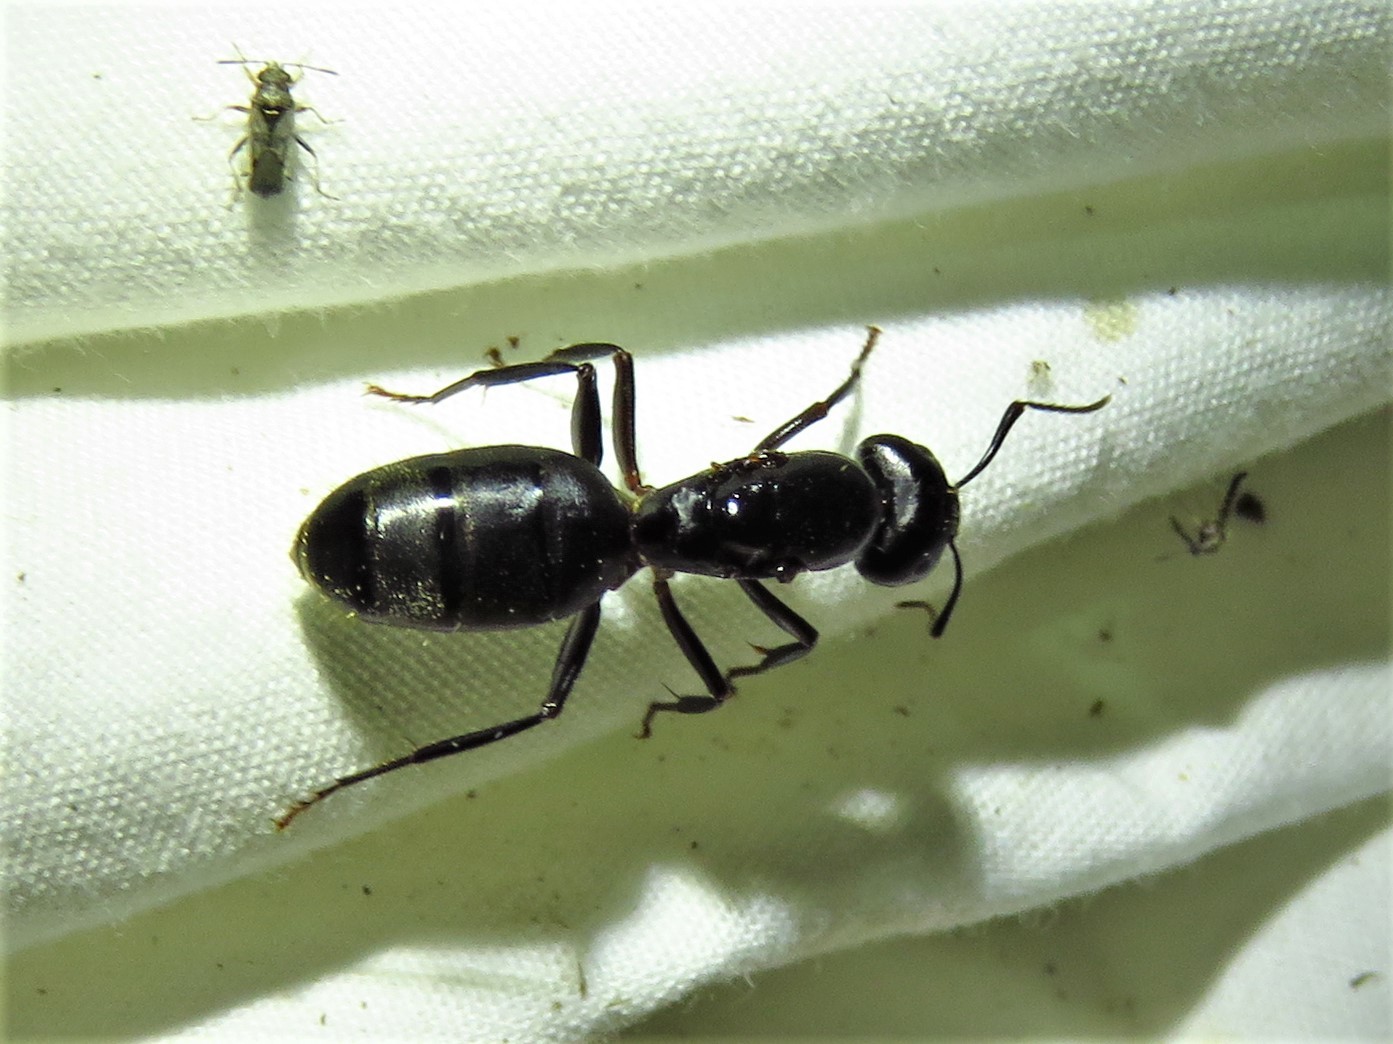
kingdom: Animalia
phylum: Arthropoda
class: Insecta
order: Hymenoptera
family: Formicidae
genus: Camponotus
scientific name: Camponotus pennsylvanicus
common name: Black carpenter ant
